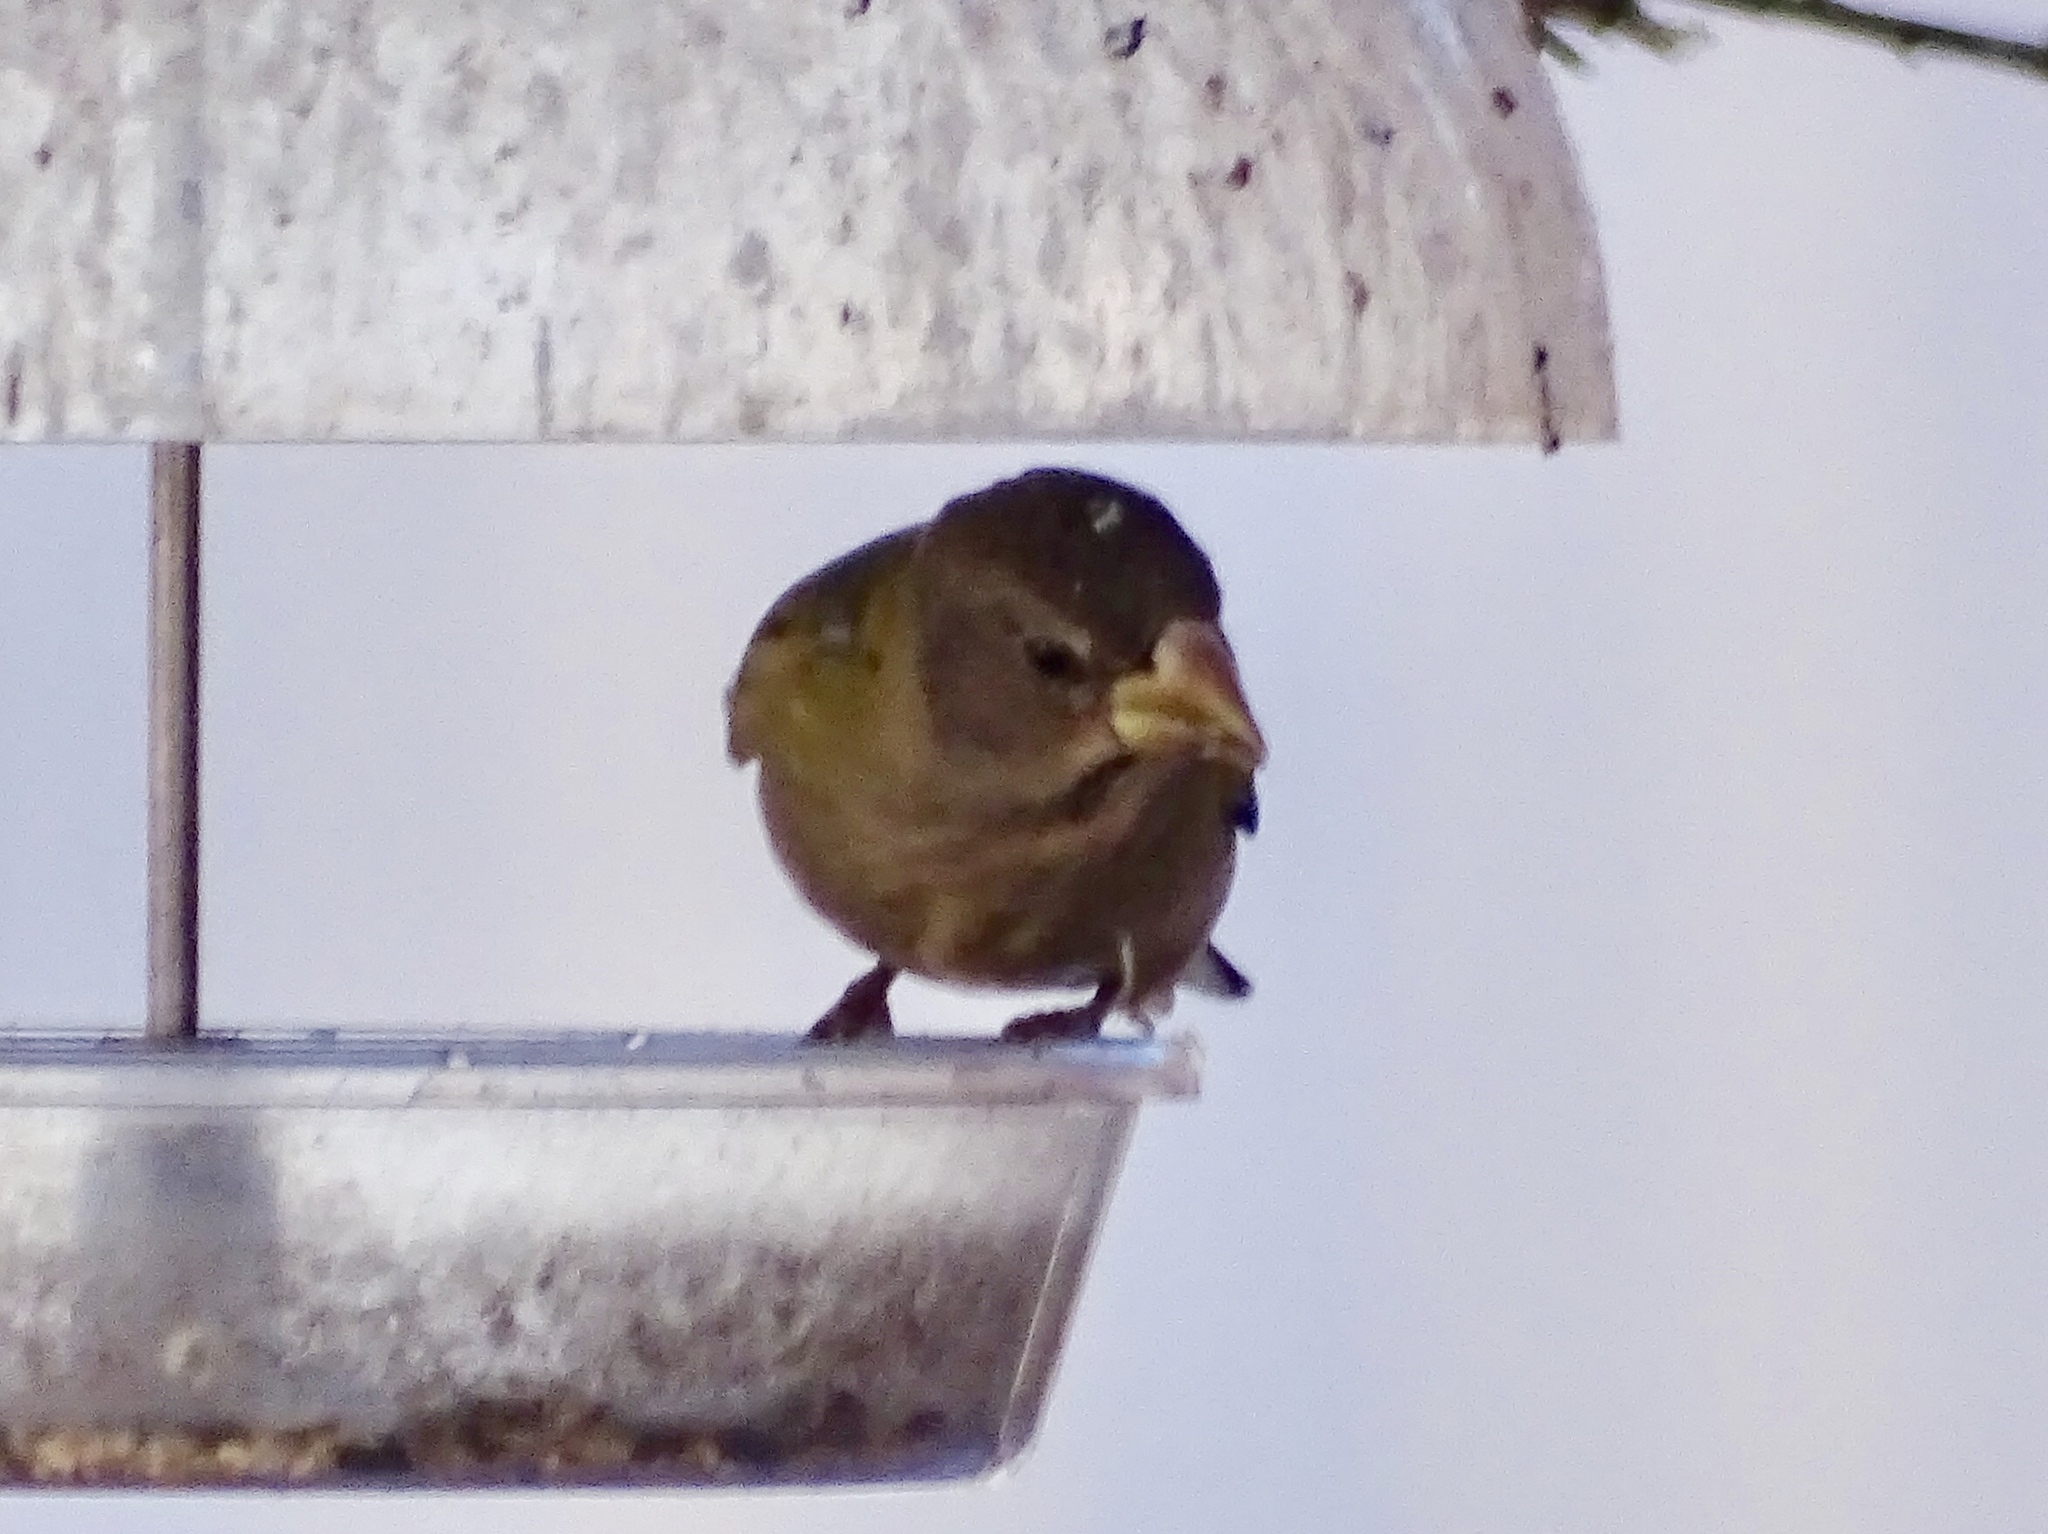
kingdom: Animalia
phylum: Chordata
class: Aves
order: Passeriformes
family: Fringillidae
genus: Hesperiphona
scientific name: Hesperiphona vespertina
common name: Evening grosbeak
